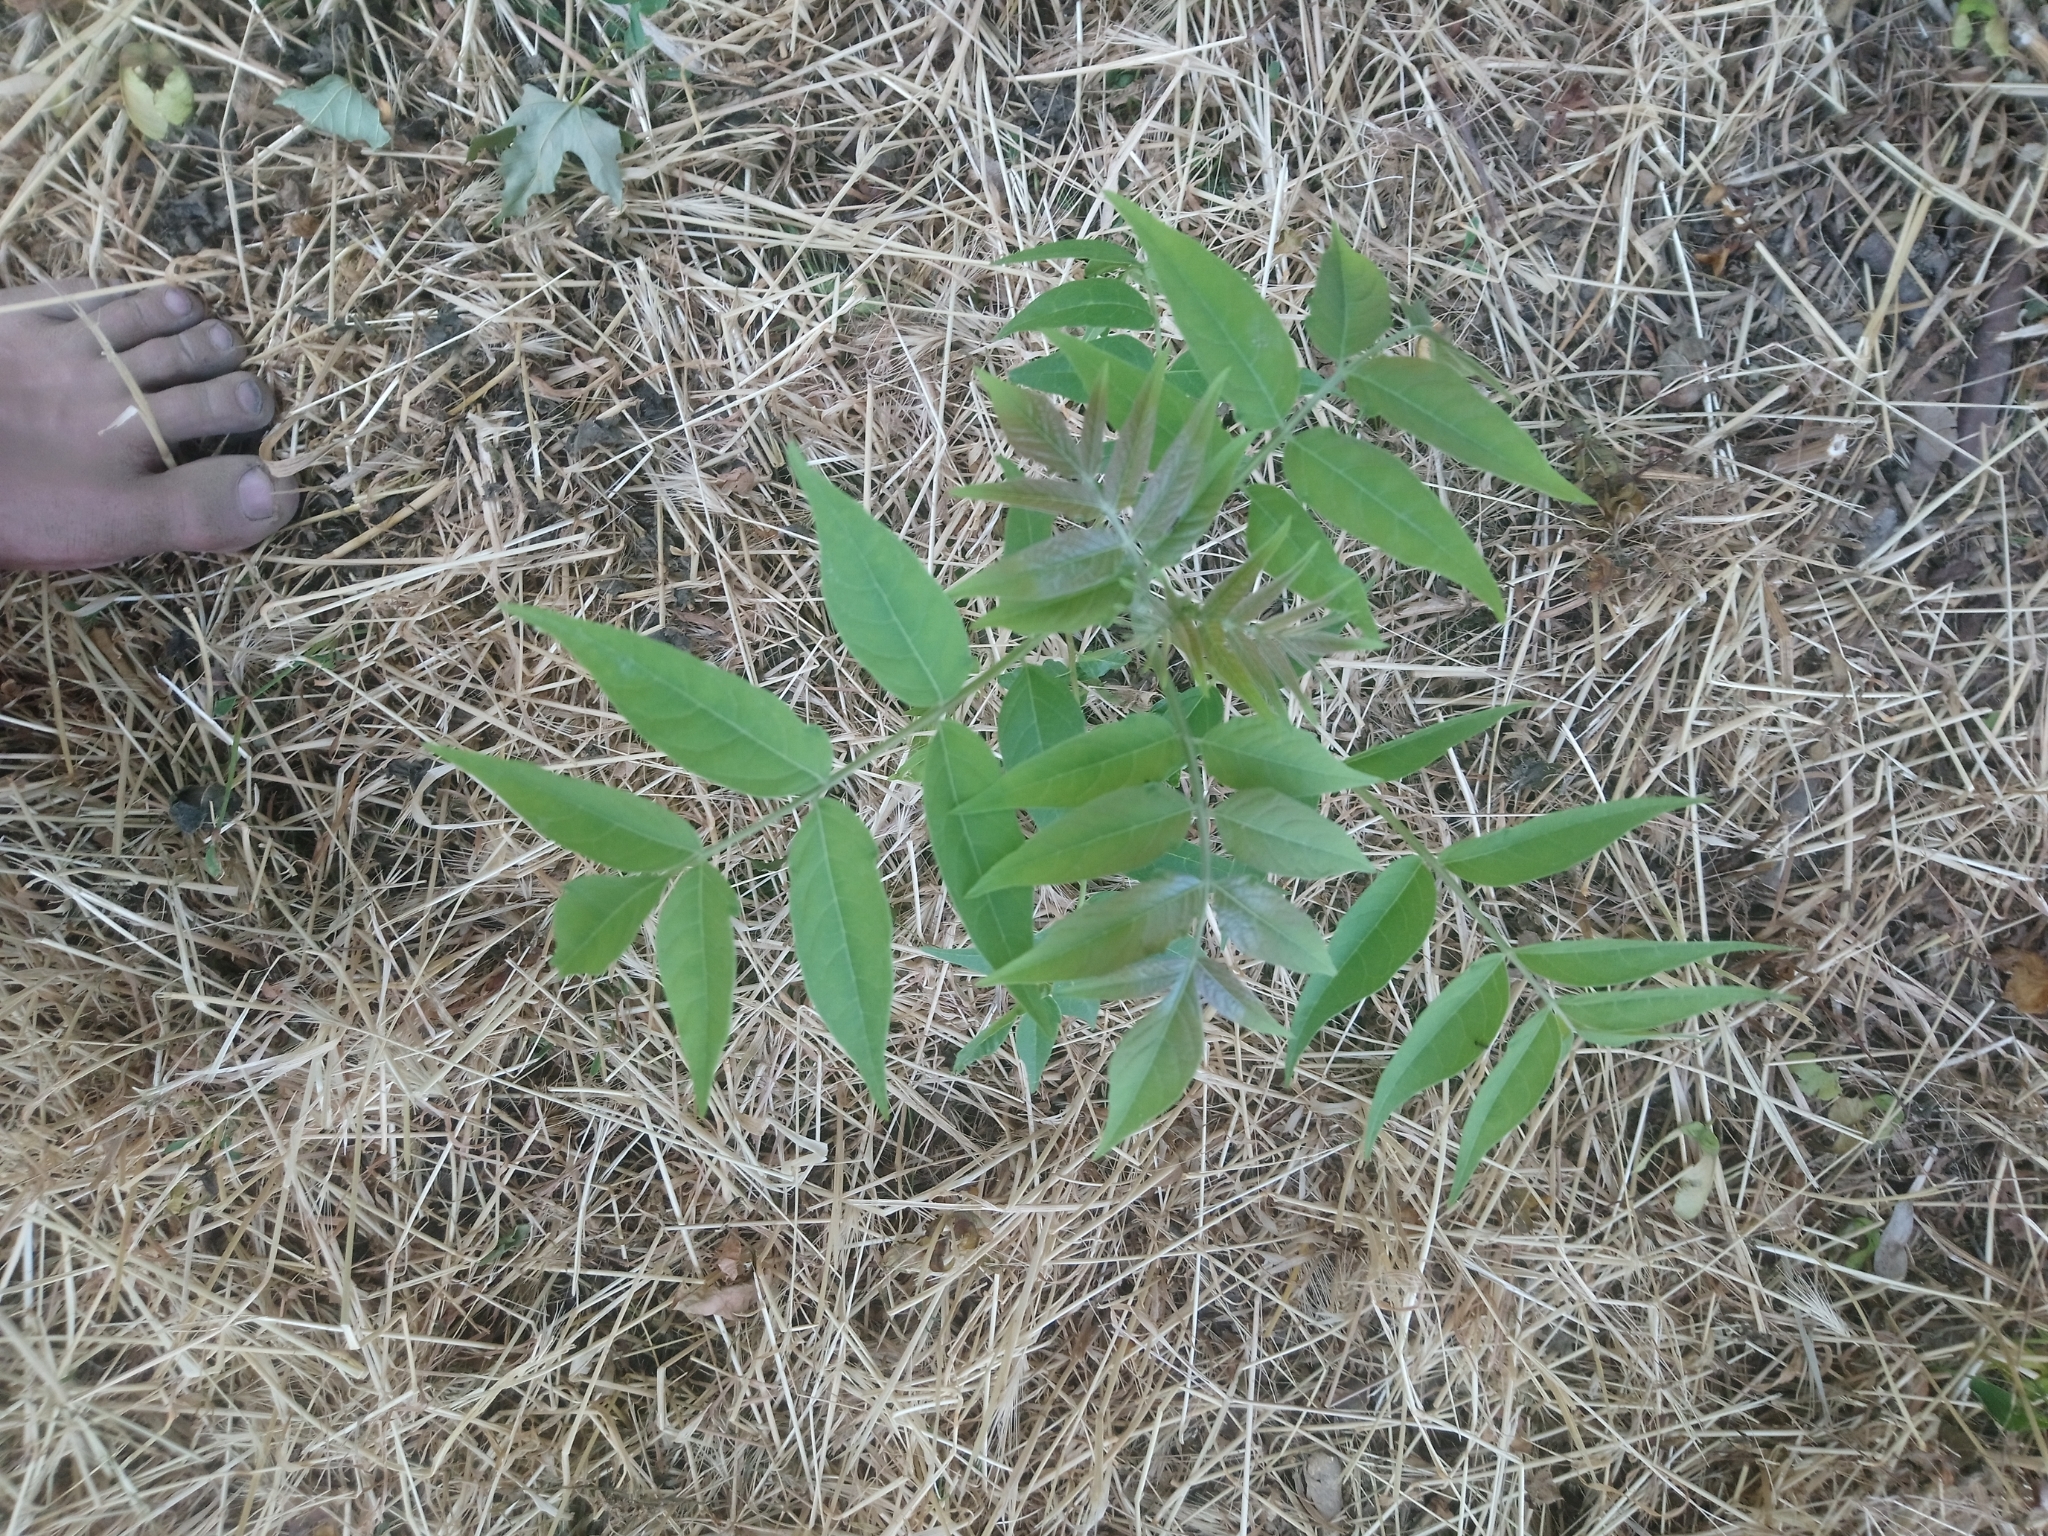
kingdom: Plantae
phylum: Tracheophyta
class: Magnoliopsida
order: Sapindales
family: Simaroubaceae
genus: Ailanthus
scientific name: Ailanthus altissima
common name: Tree-of-heaven
